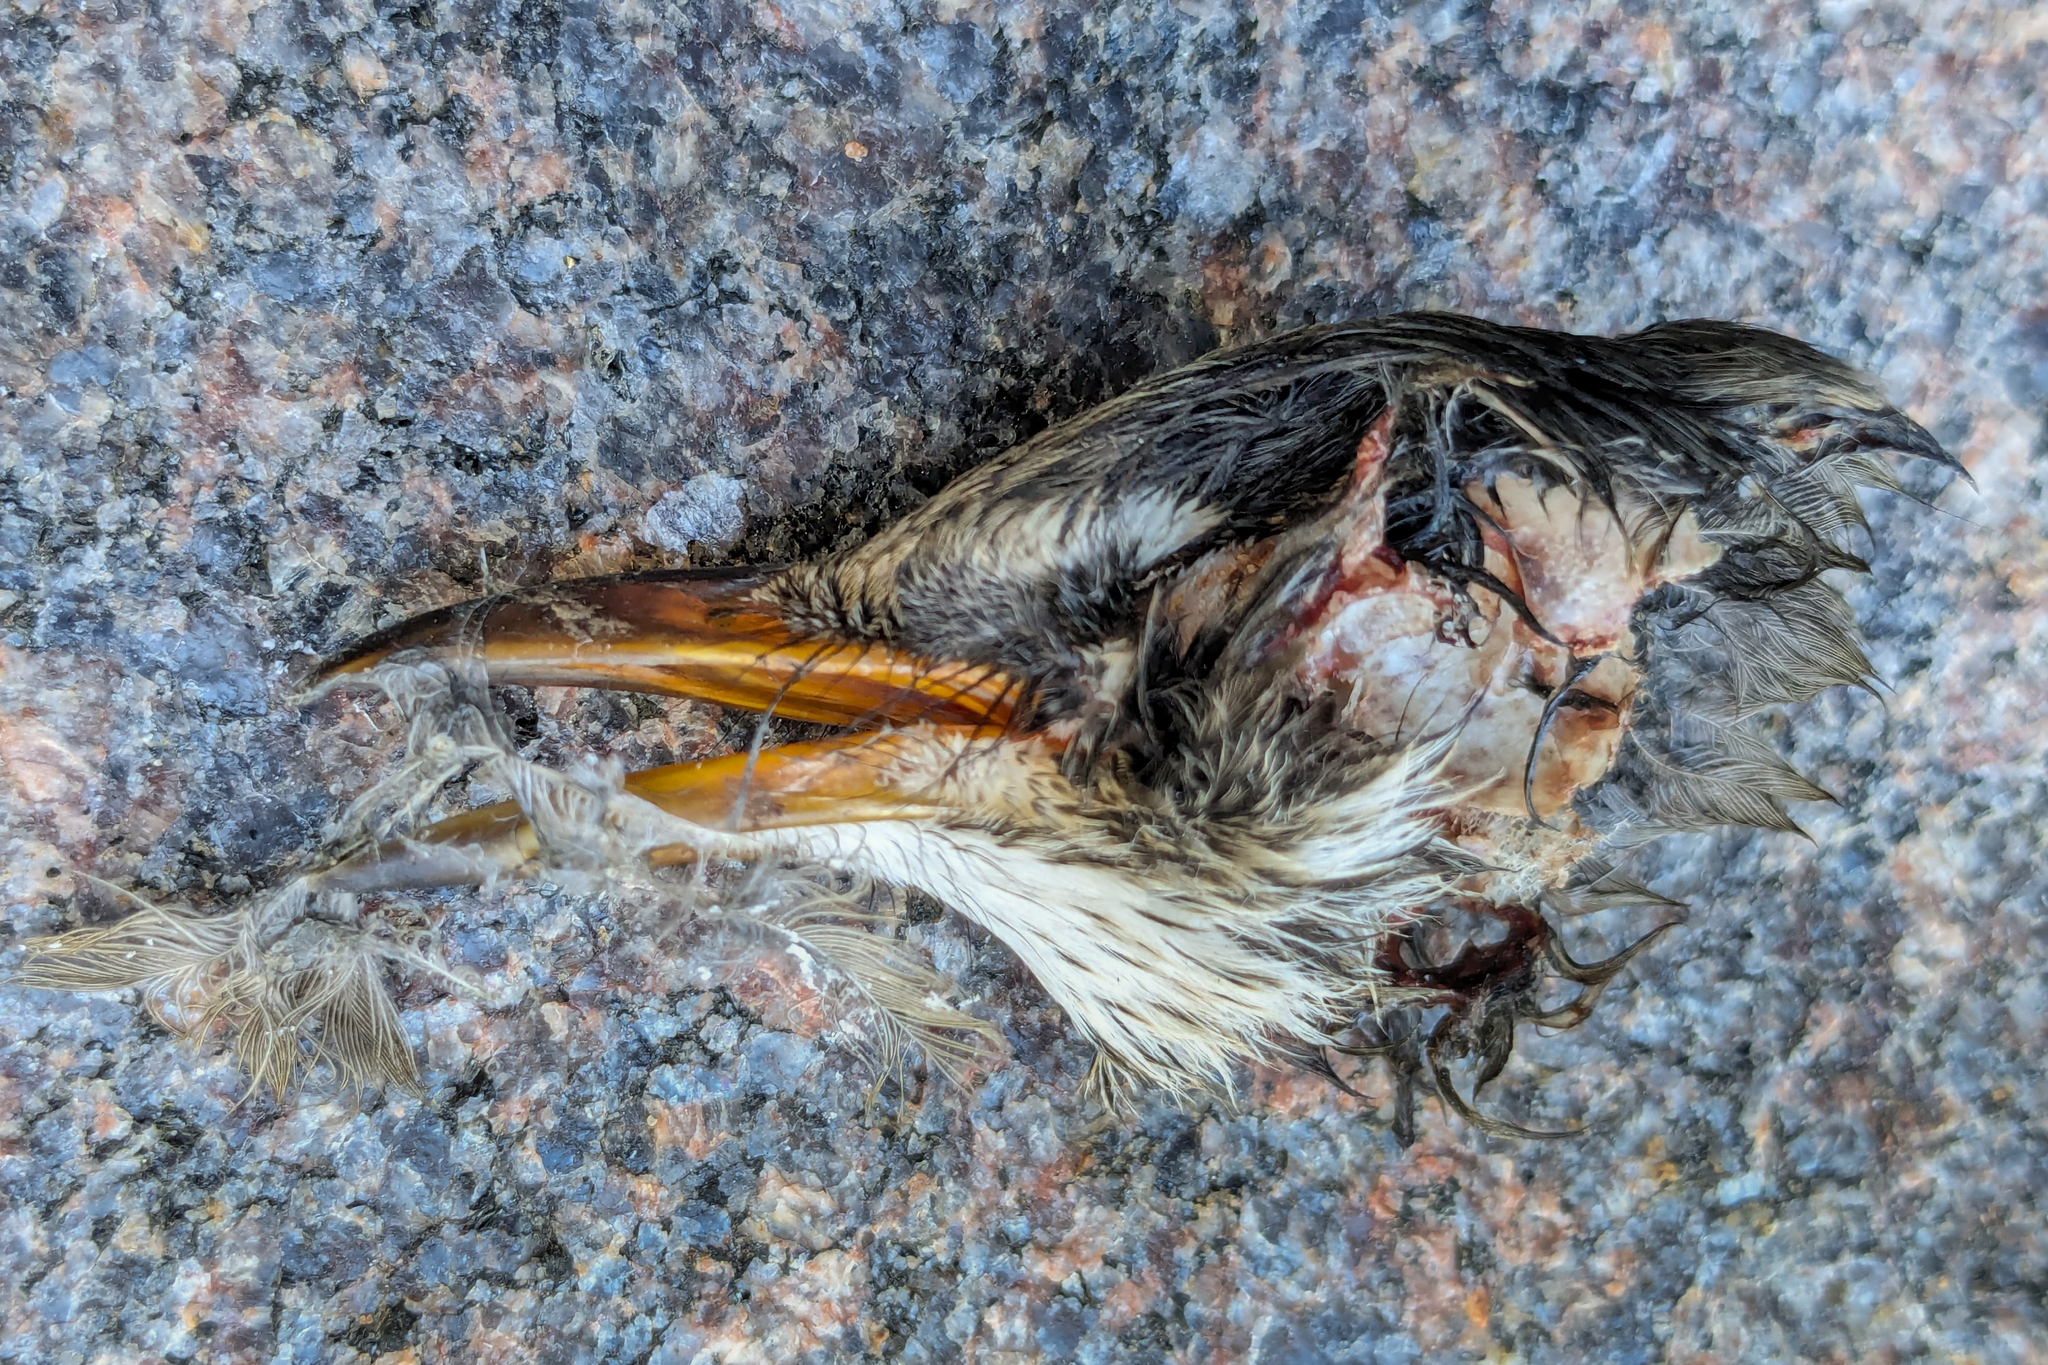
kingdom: Animalia
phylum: Chordata
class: Aves
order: Passeriformes
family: Turdidae
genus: Turdus
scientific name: Turdus migratorius
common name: American robin
